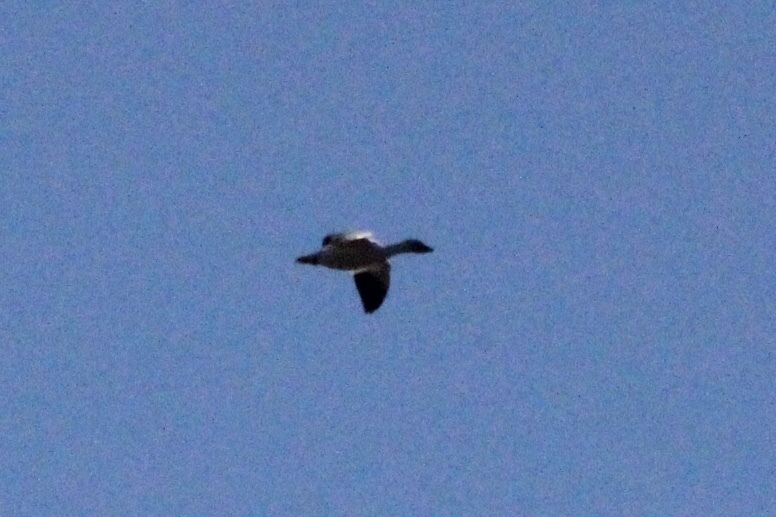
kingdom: Animalia
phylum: Chordata
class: Aves
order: Anseriformes
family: Anatidae
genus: Anser
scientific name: Anser caerulescens
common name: Snow goose
